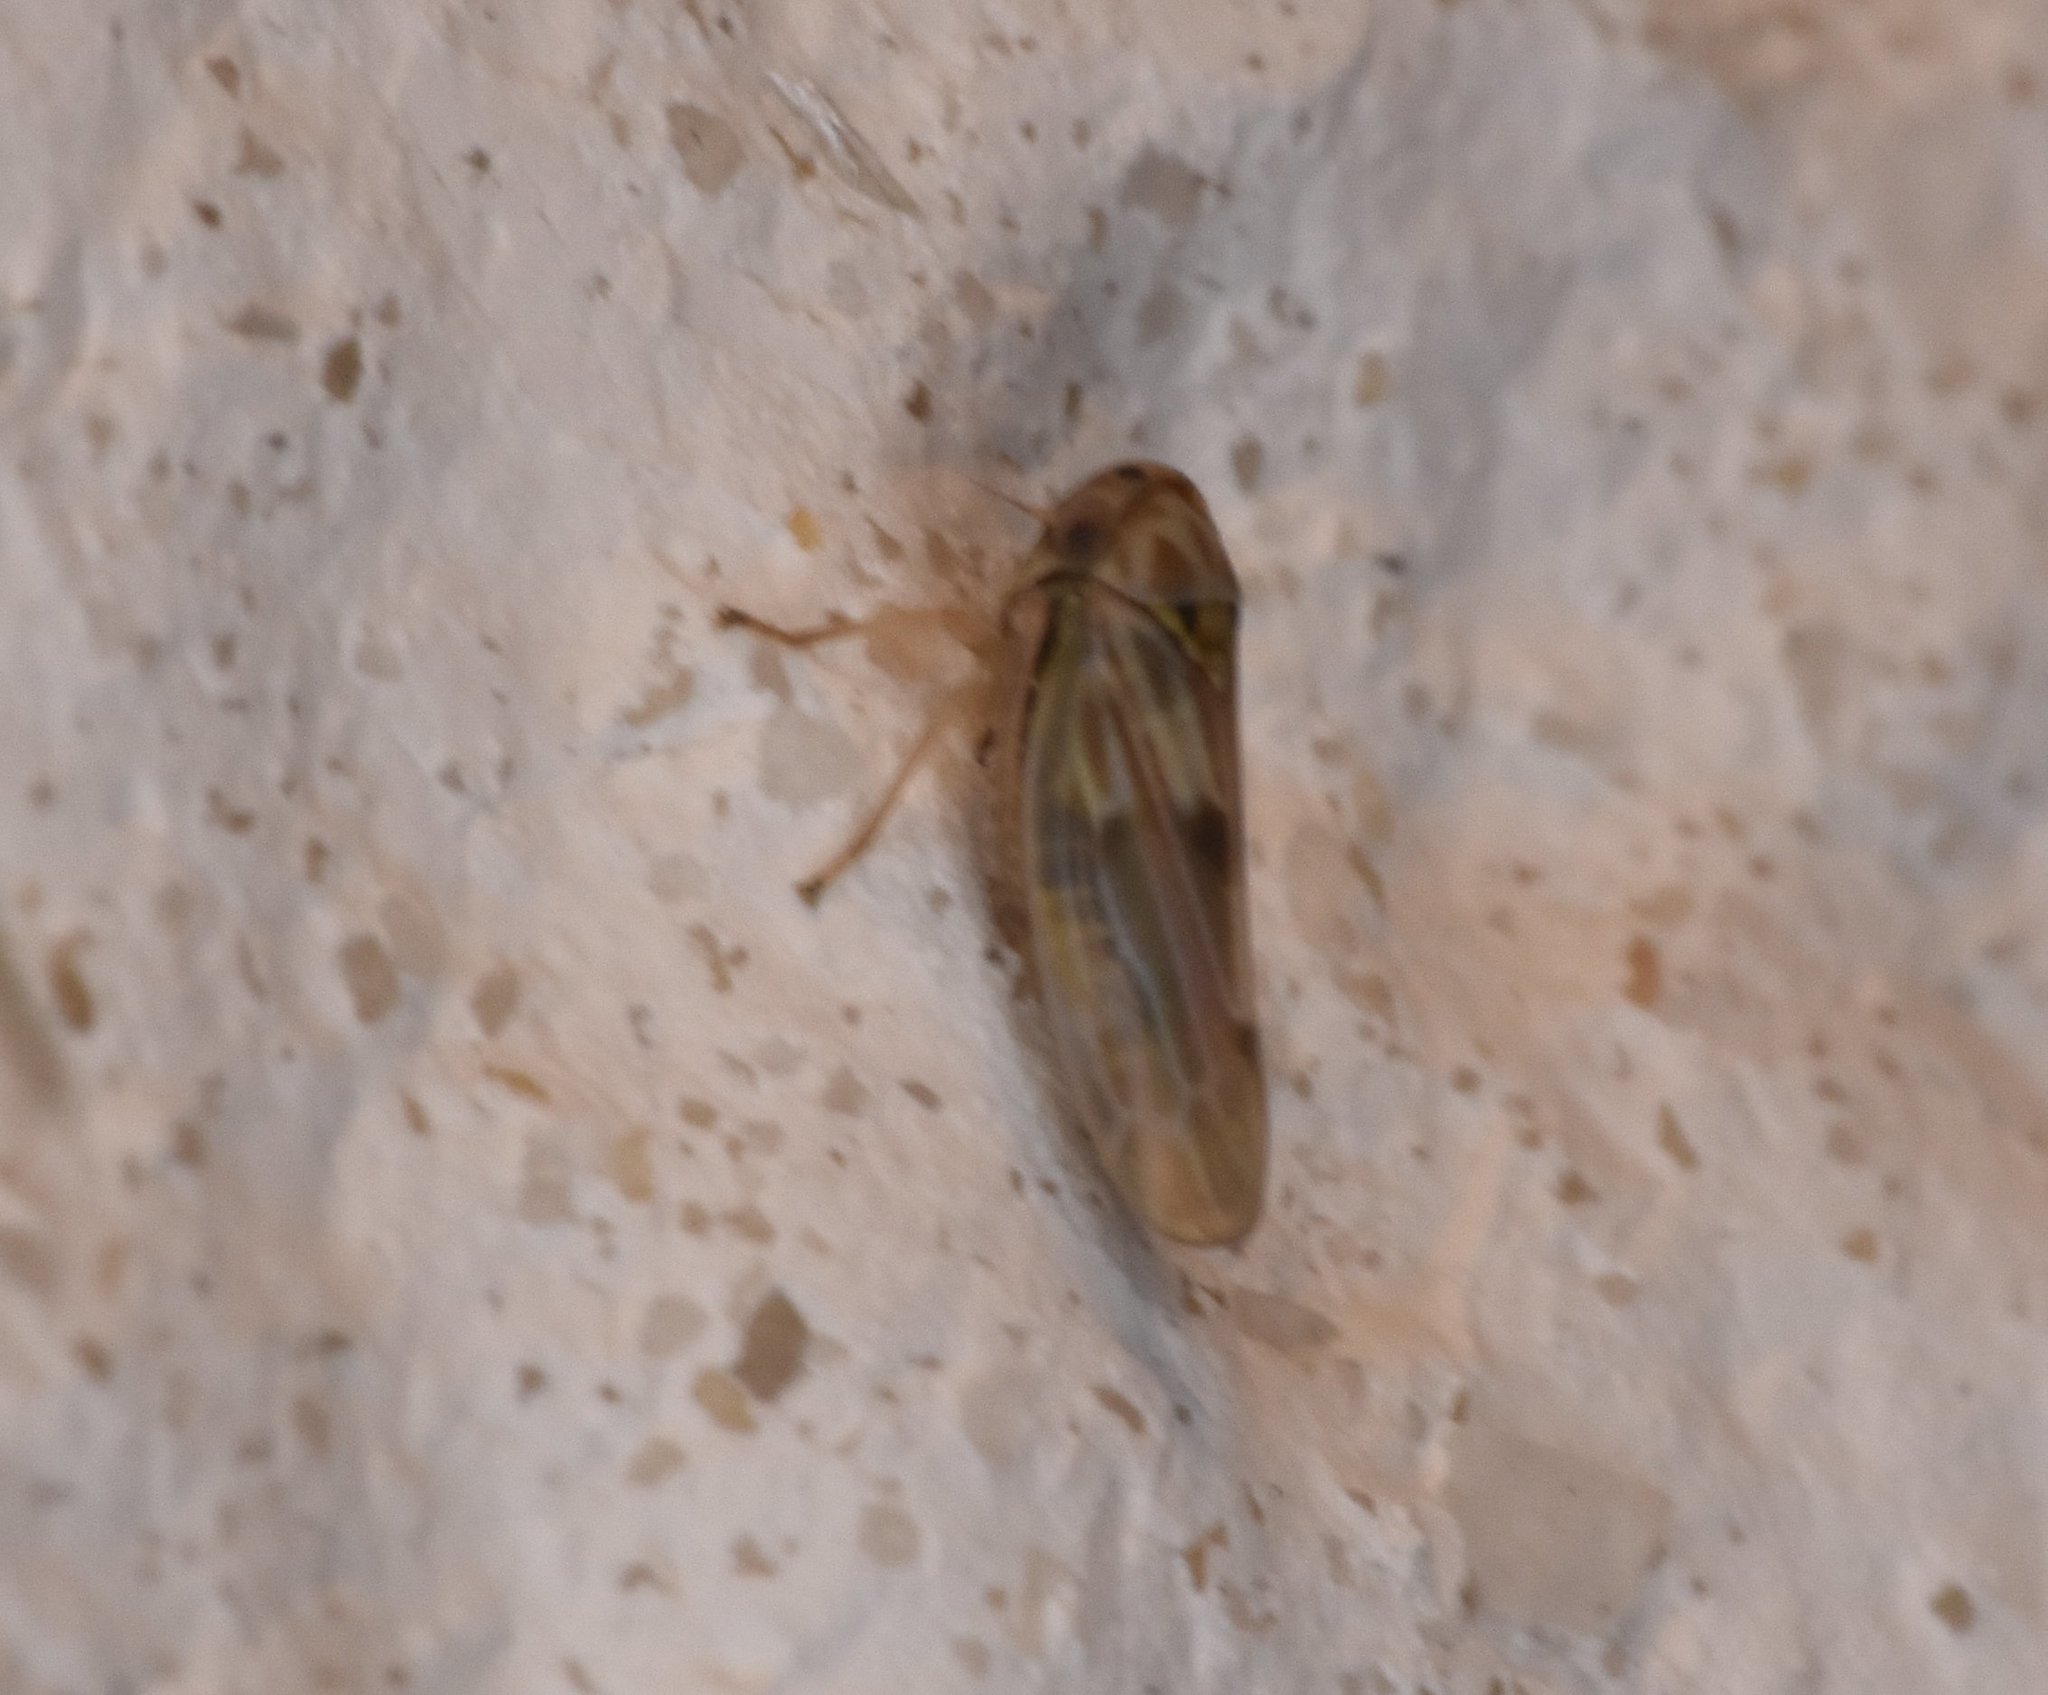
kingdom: Animalia
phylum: Arthropoda
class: Insecta
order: Hemiptera
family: Cicadellidae
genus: Agallia
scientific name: Agallia albidula
